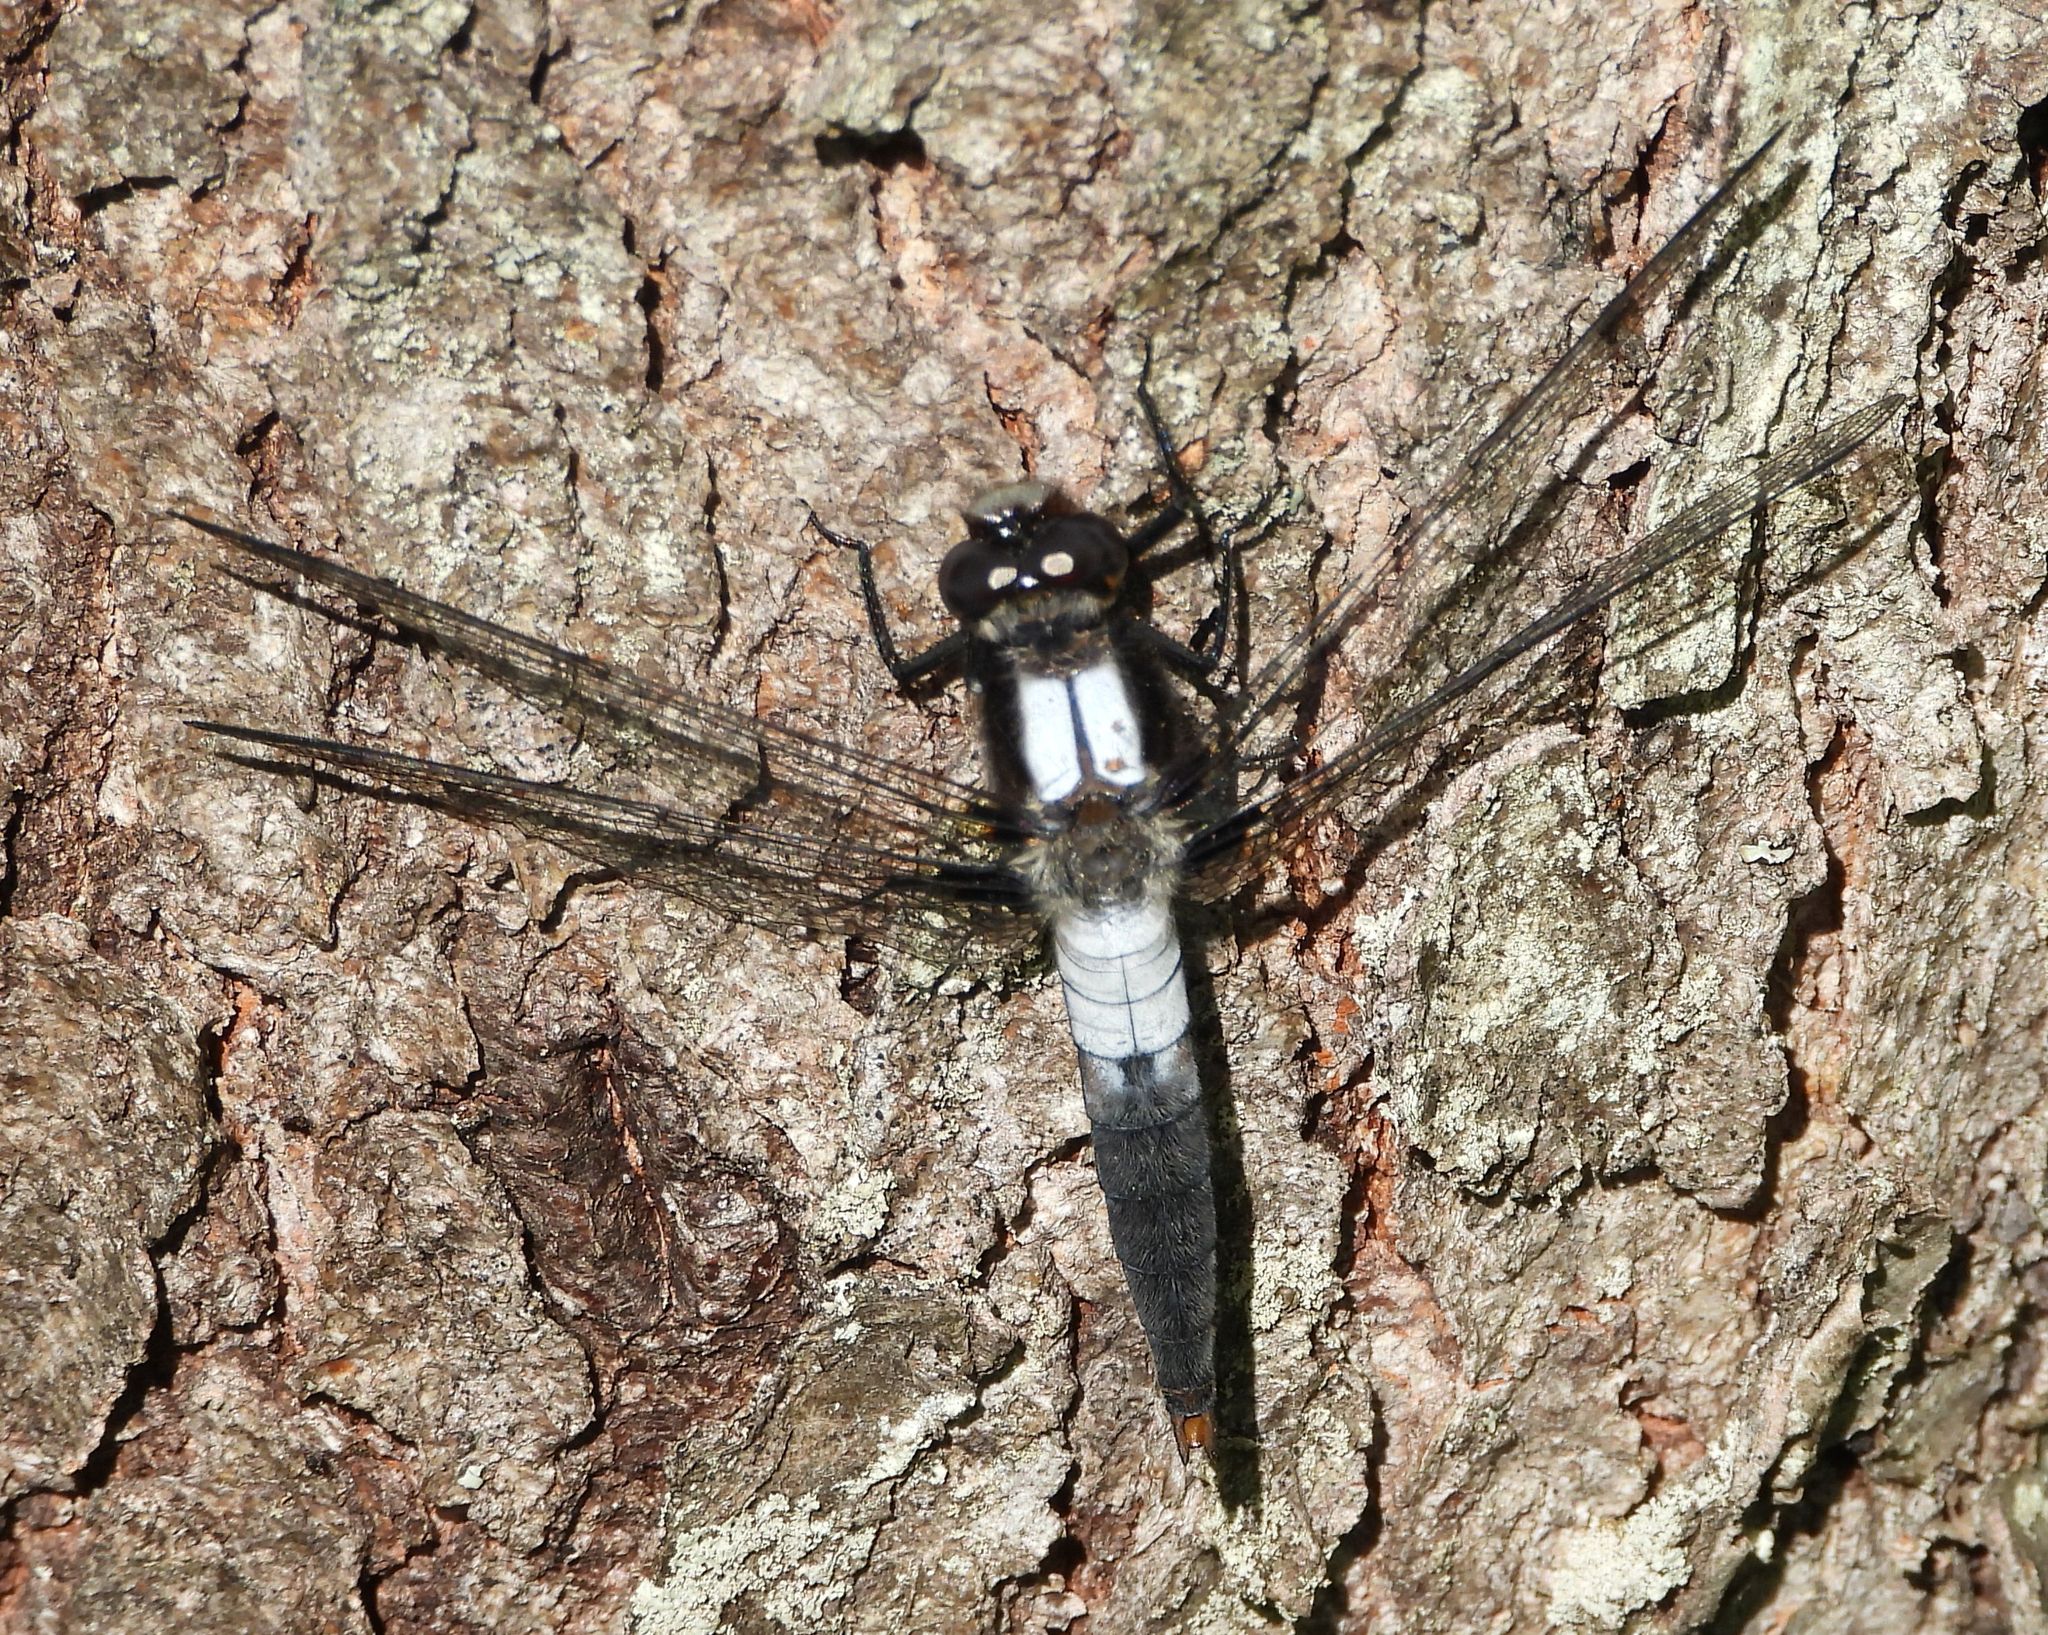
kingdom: Animalia
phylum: Arthropoda
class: Insecta
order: Odonata
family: Libellulidae
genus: Ladona
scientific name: Ladona julia
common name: Chalk-fronted corporal
